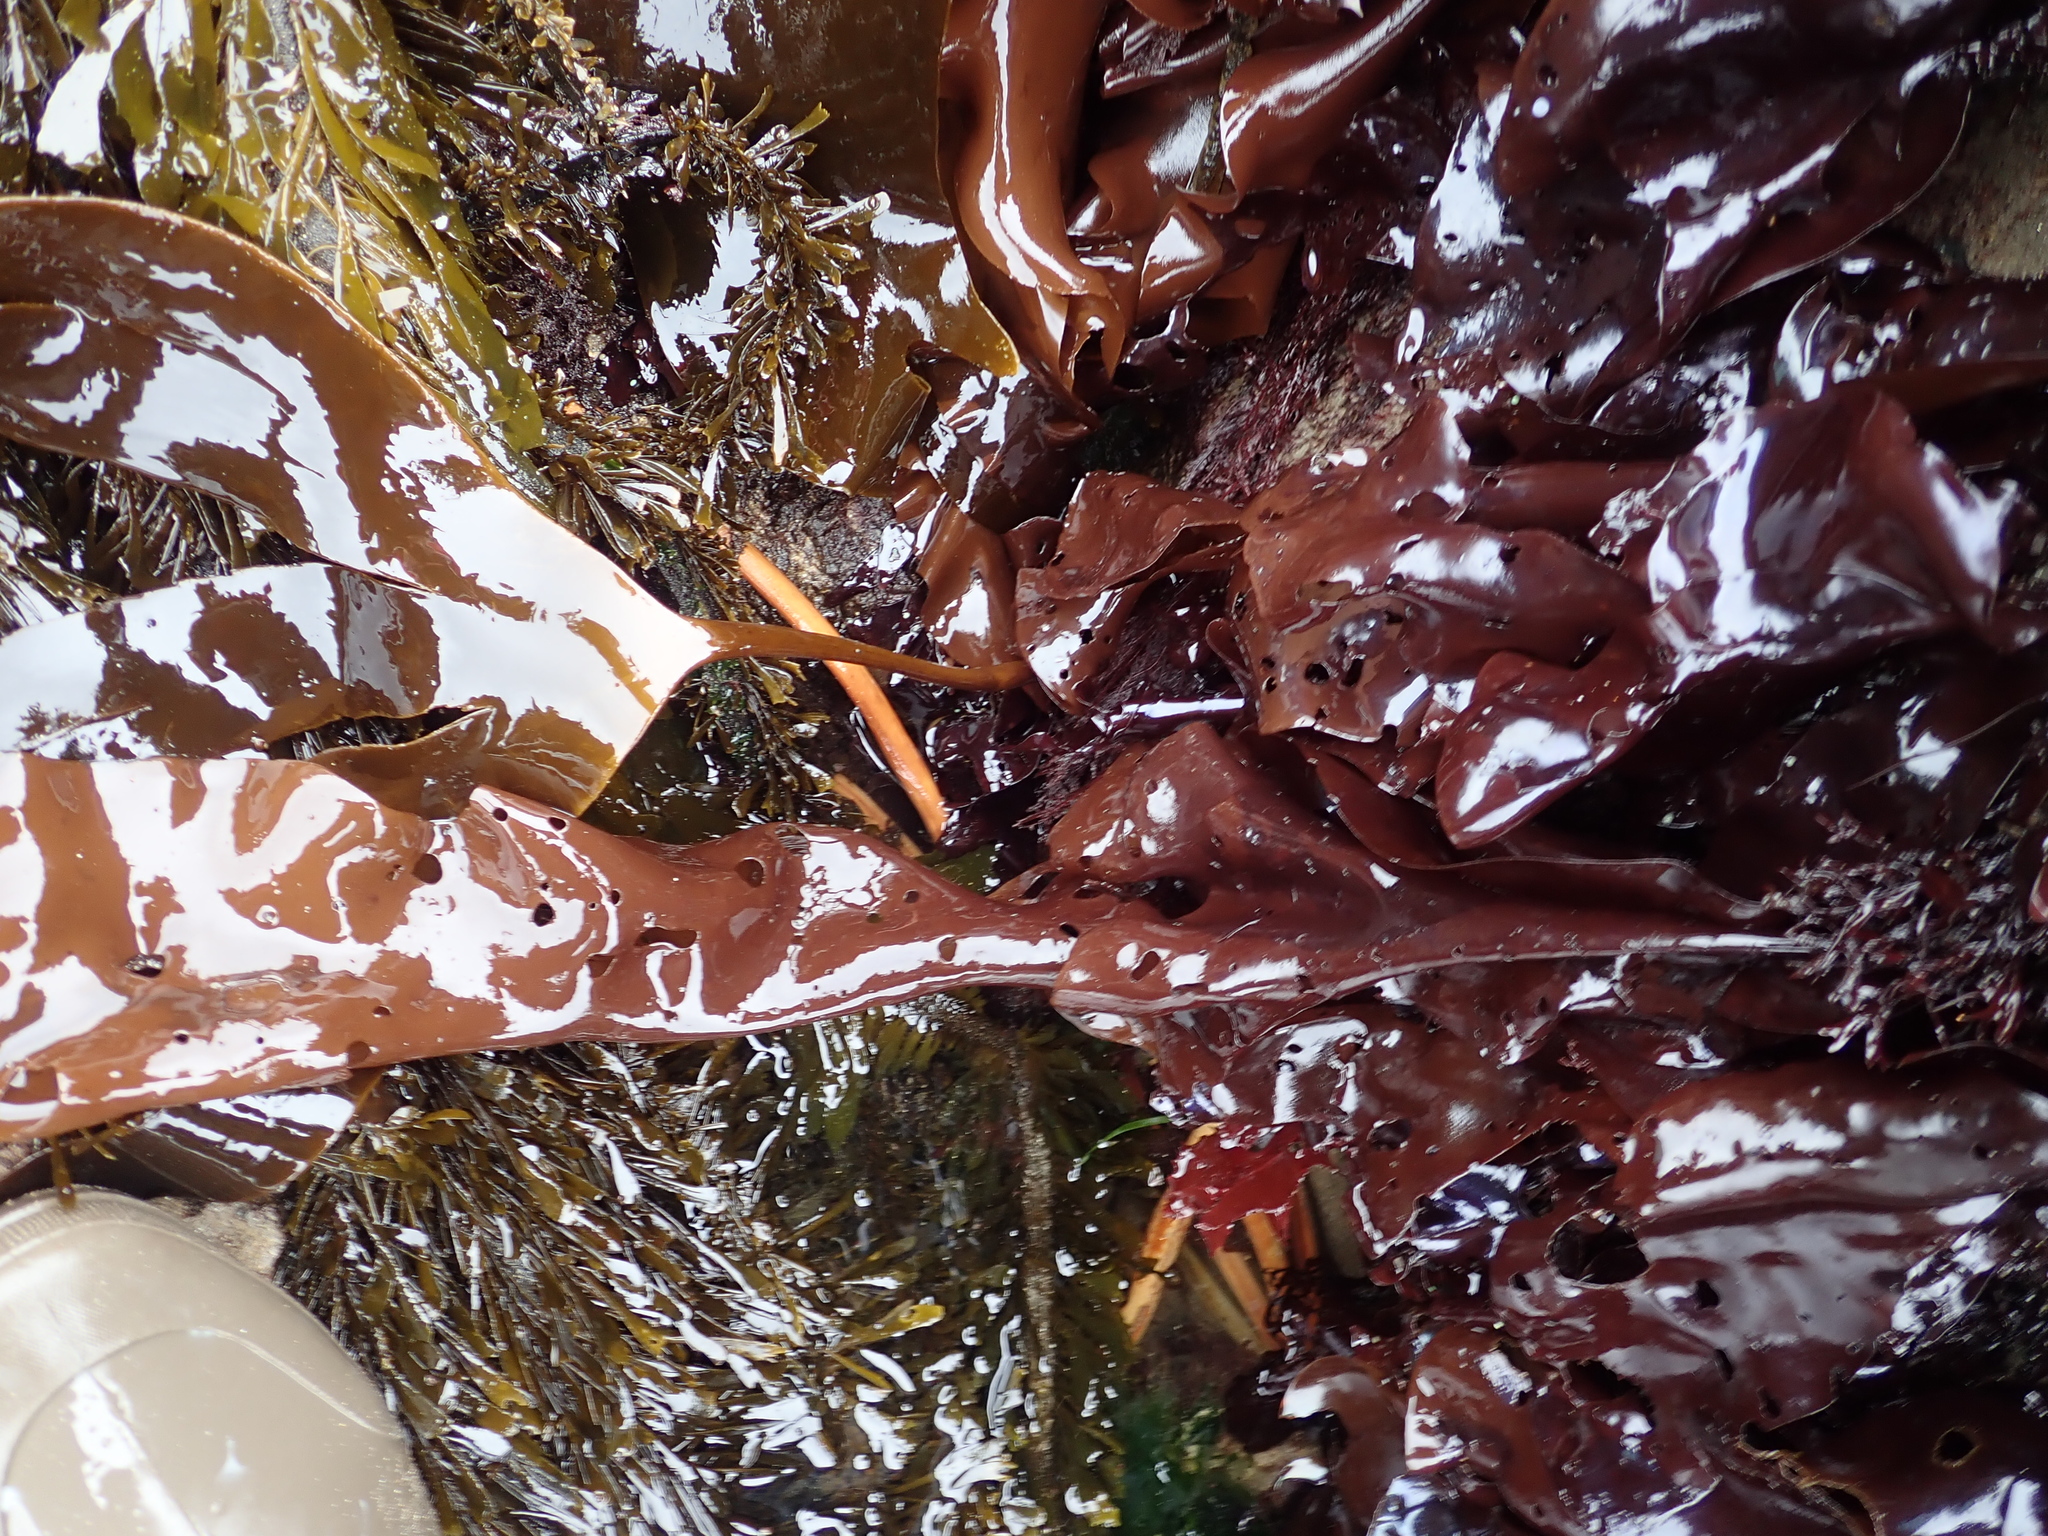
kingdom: Plantae
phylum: Rhodophyta
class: Florideophyceae
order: Gigartinales
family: Gigartinaceae
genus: Mazzaella
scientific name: Mazzaella splendens
